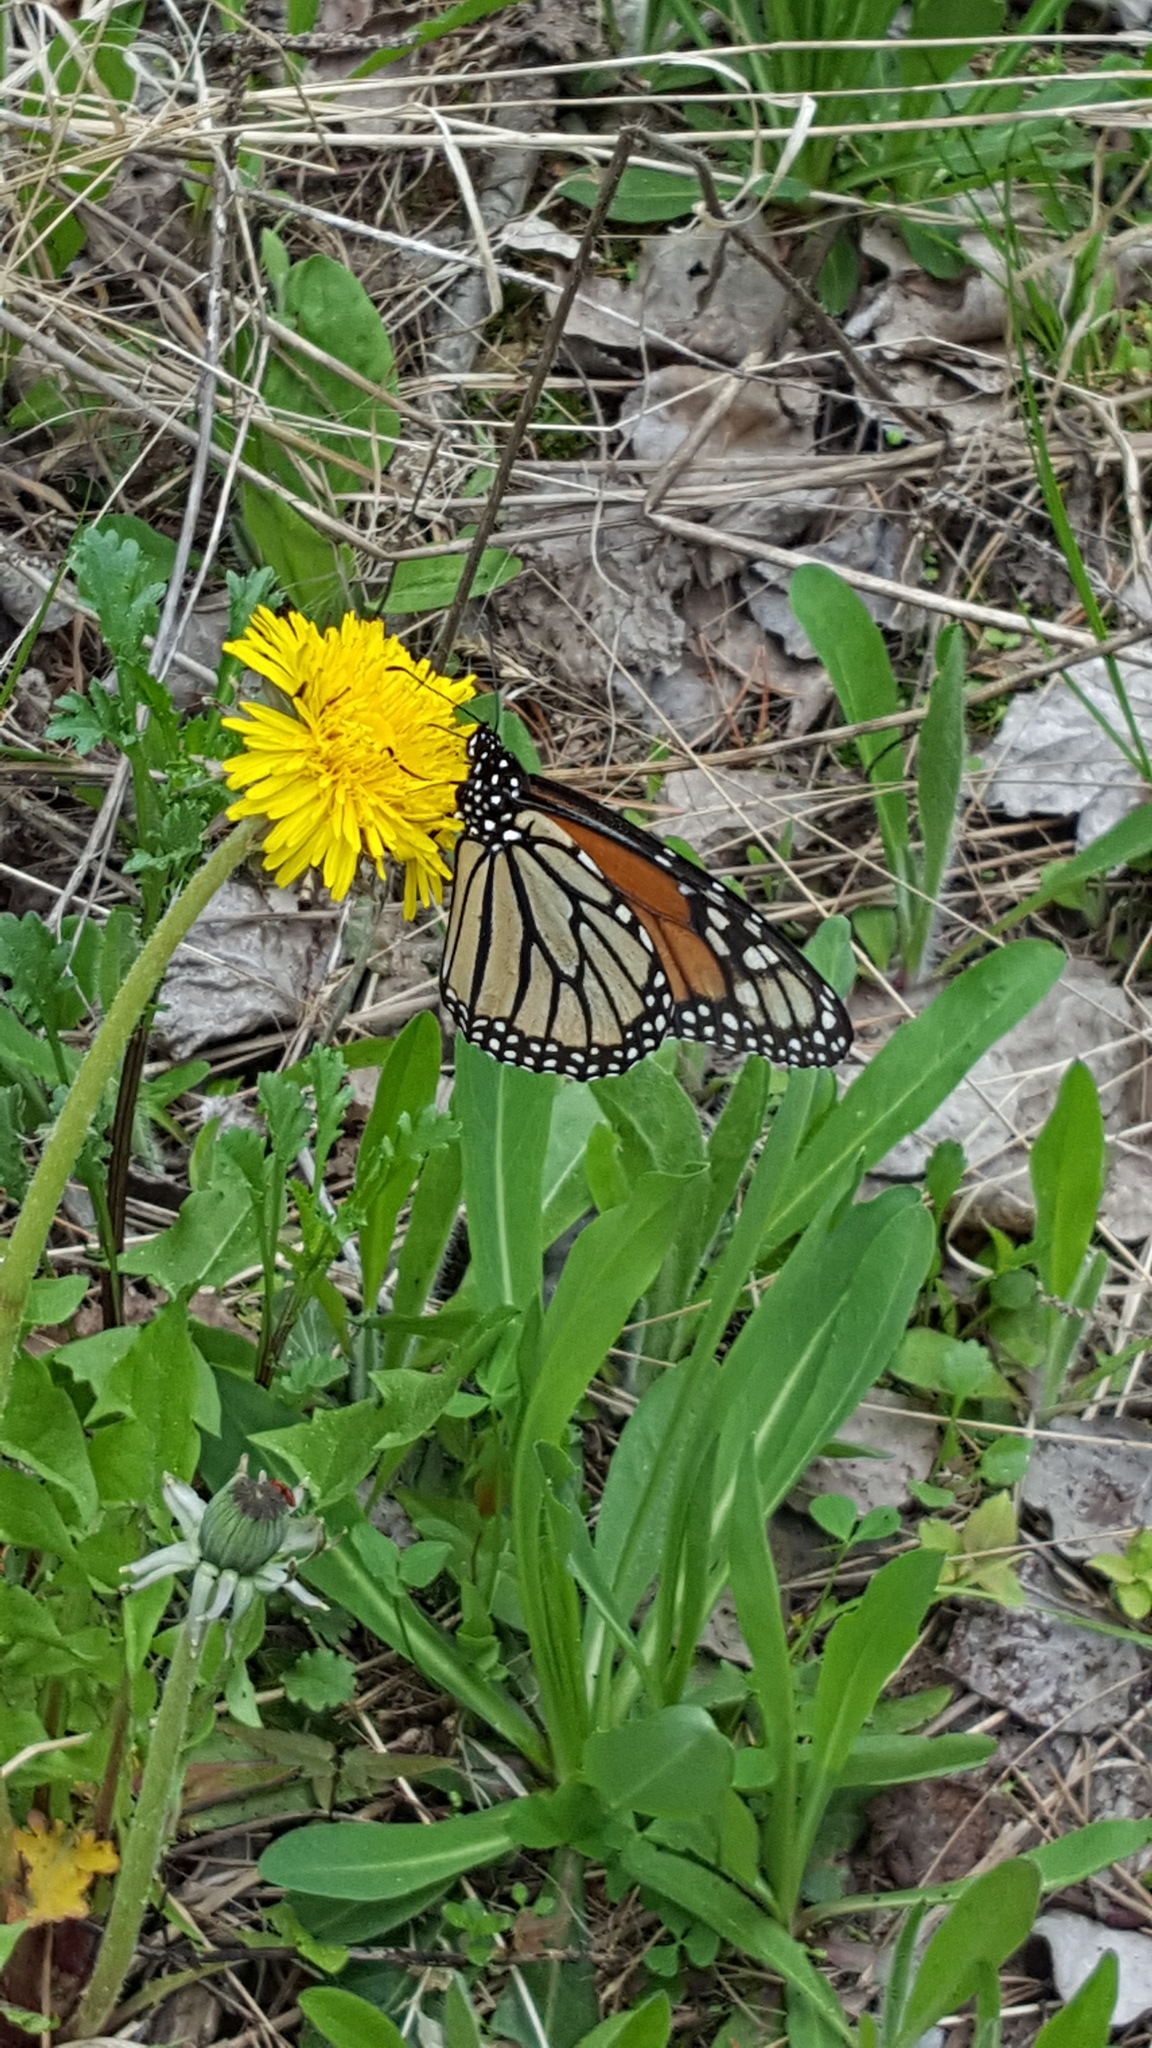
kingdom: Animalia
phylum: Arthropoda
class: Insecta
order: Lepidoptera
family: Nymphalidae
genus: Danaus
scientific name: Danaus plexippus
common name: Monarch
